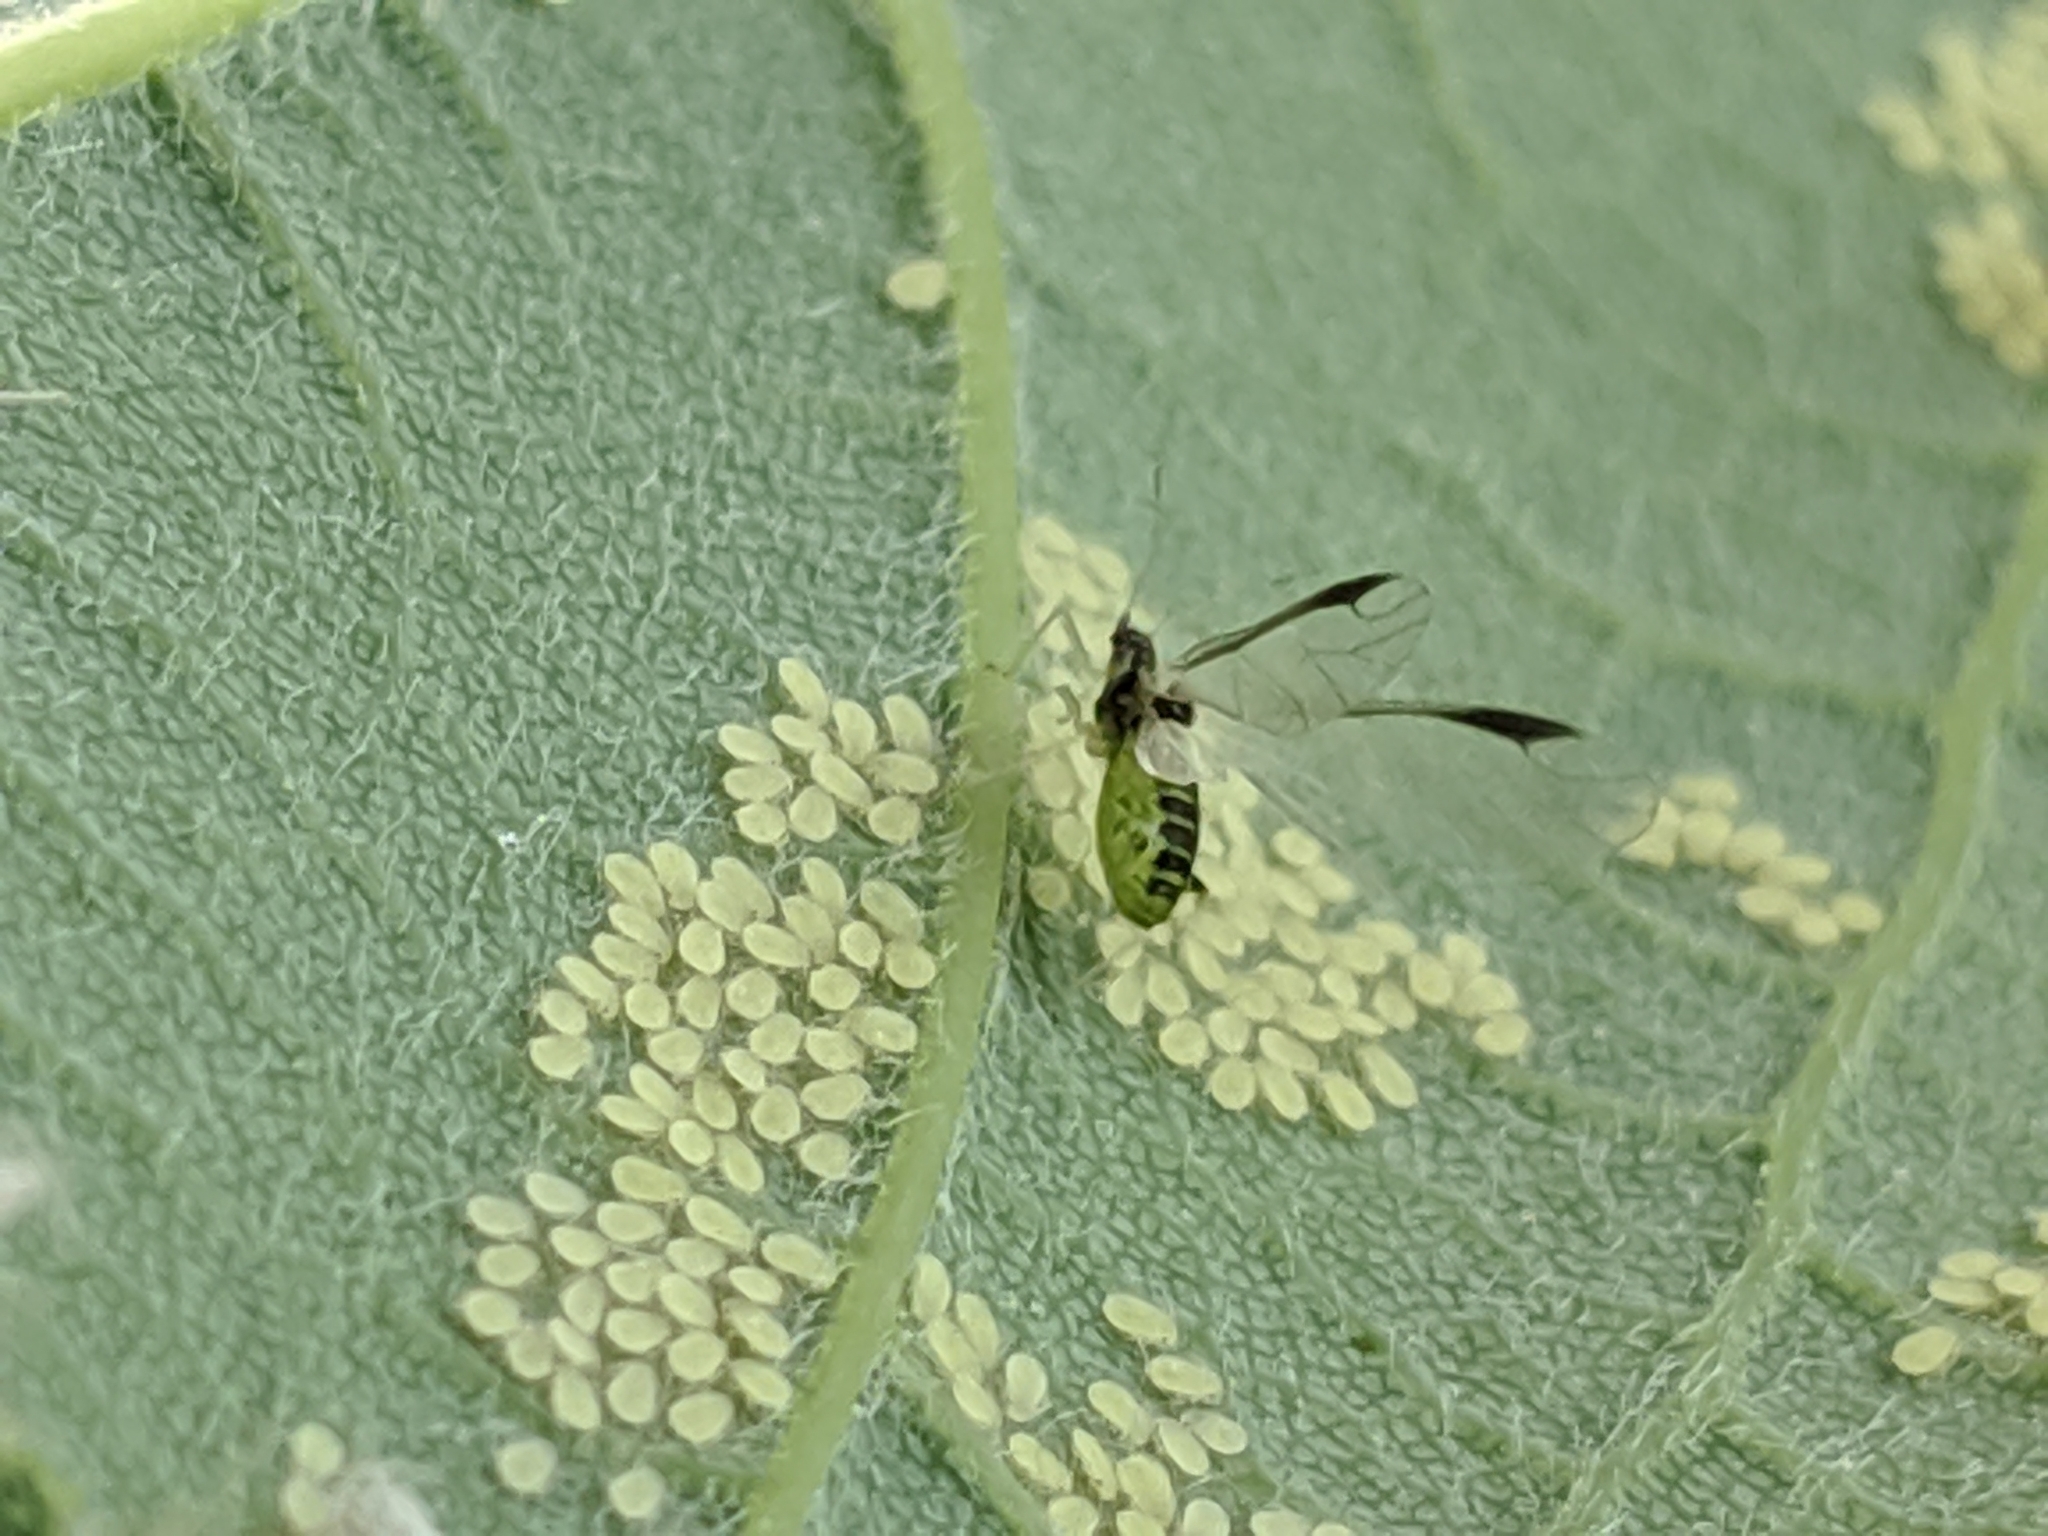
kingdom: Animalia
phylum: Arthropoda
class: Insecta
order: Hemiptera
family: Aphididae
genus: Periphyllus
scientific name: Periphyllus acericola
